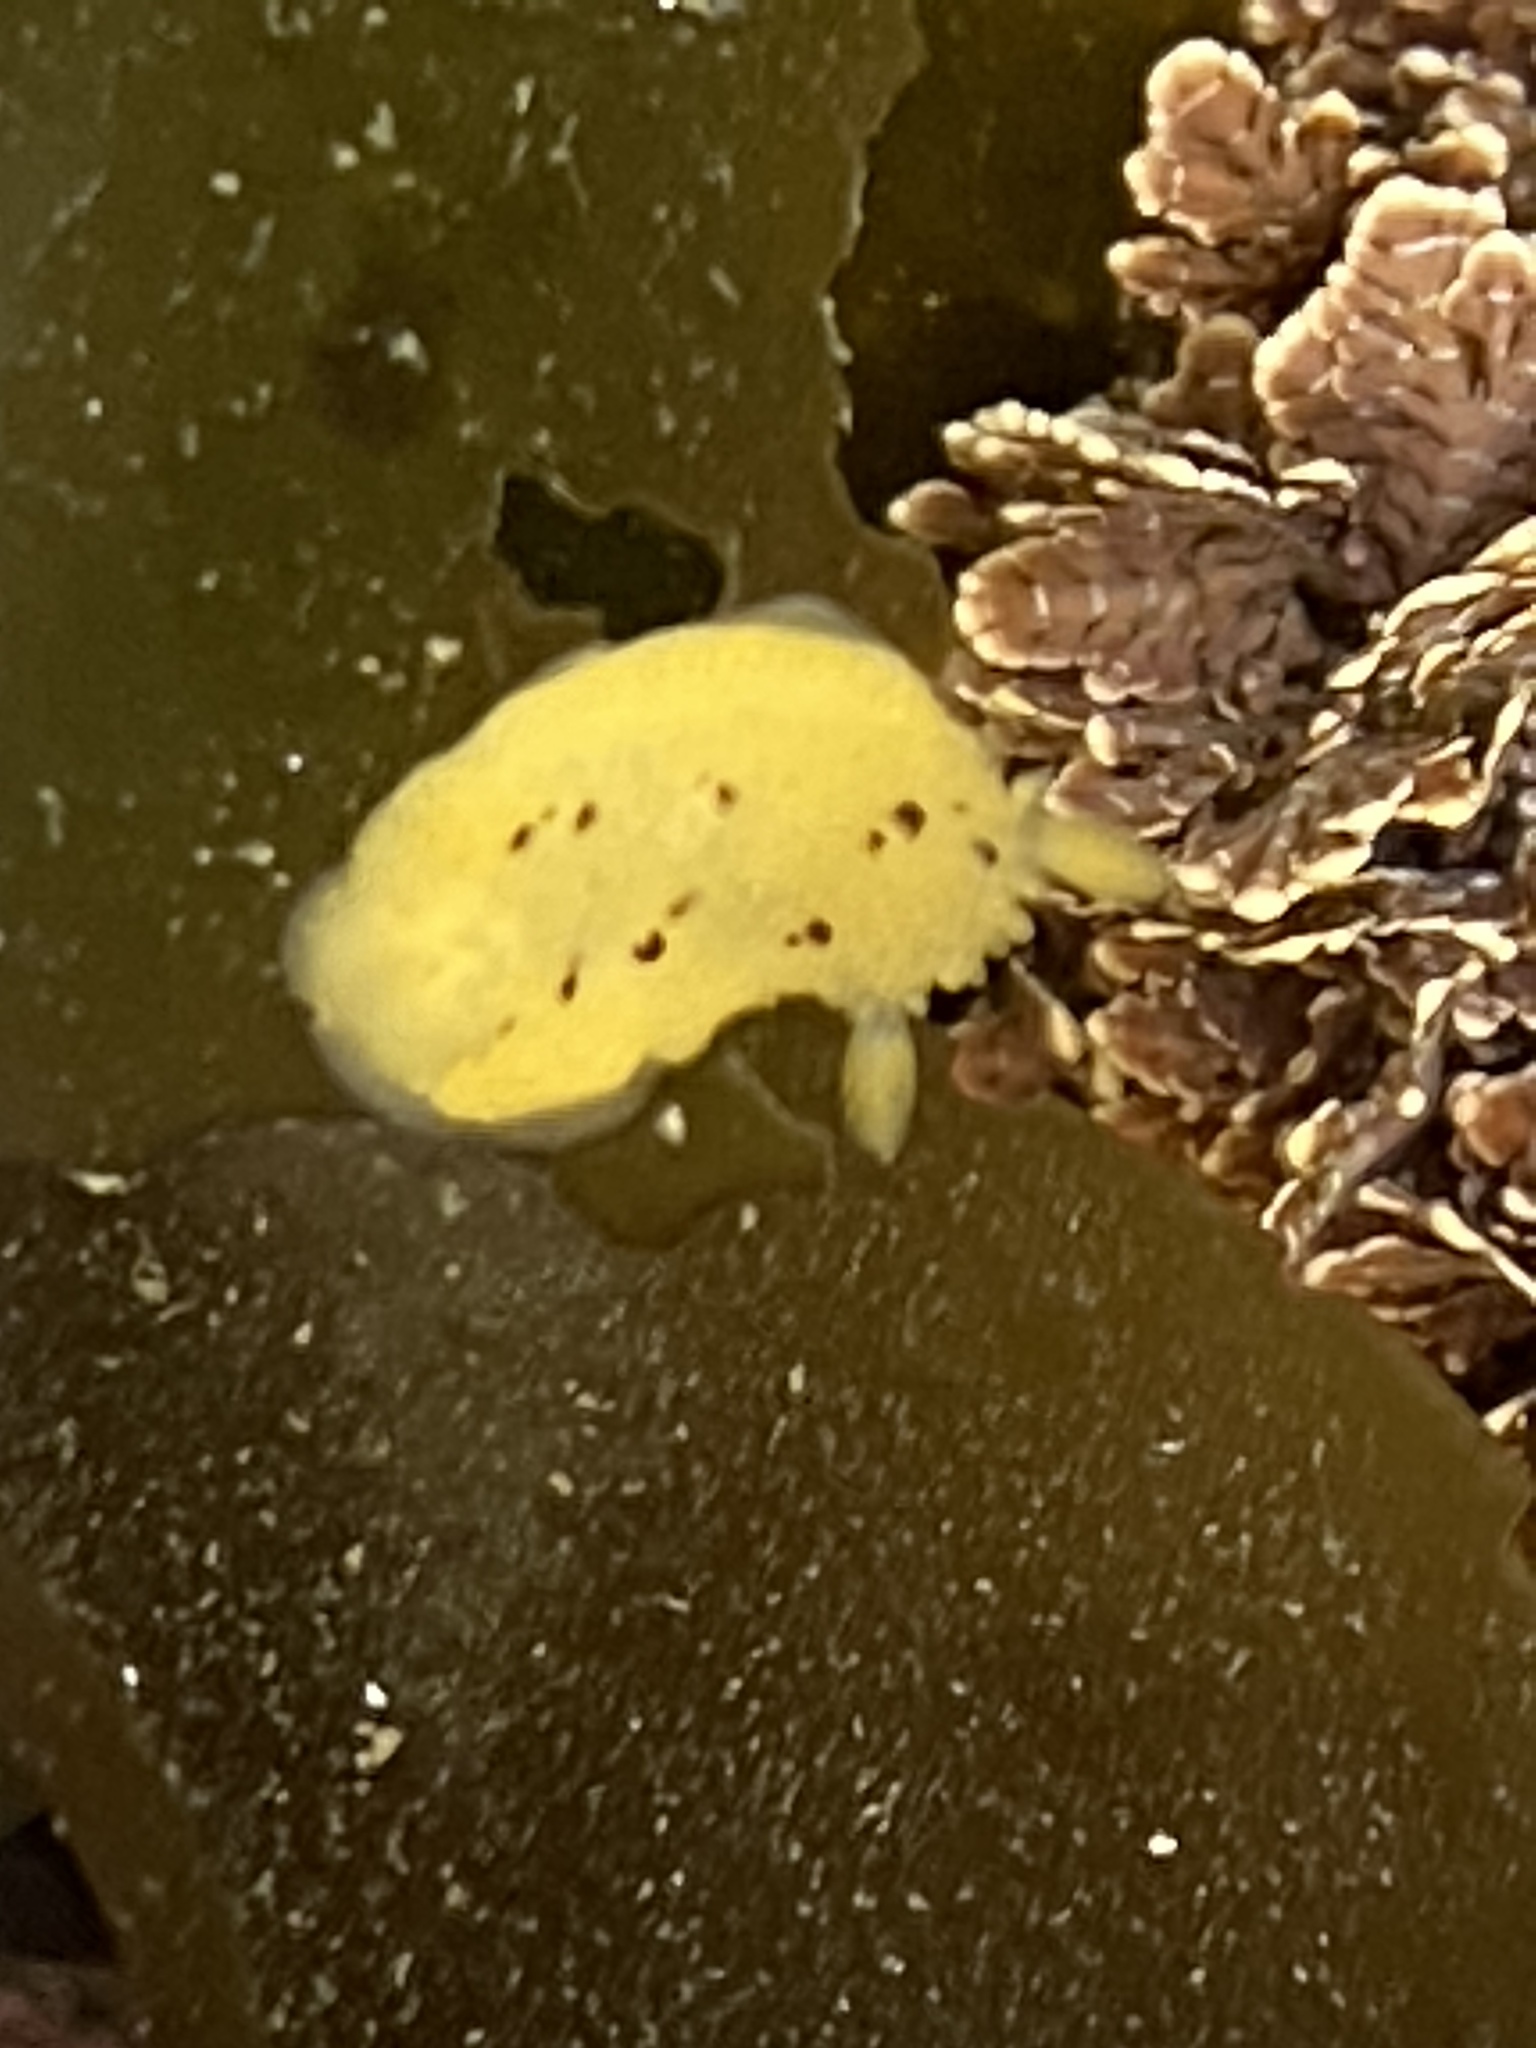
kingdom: Animalia
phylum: Mollusca
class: Gastropoda
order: Nudibranchia
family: Dorididae
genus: Doris
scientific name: Doris montereyensis
